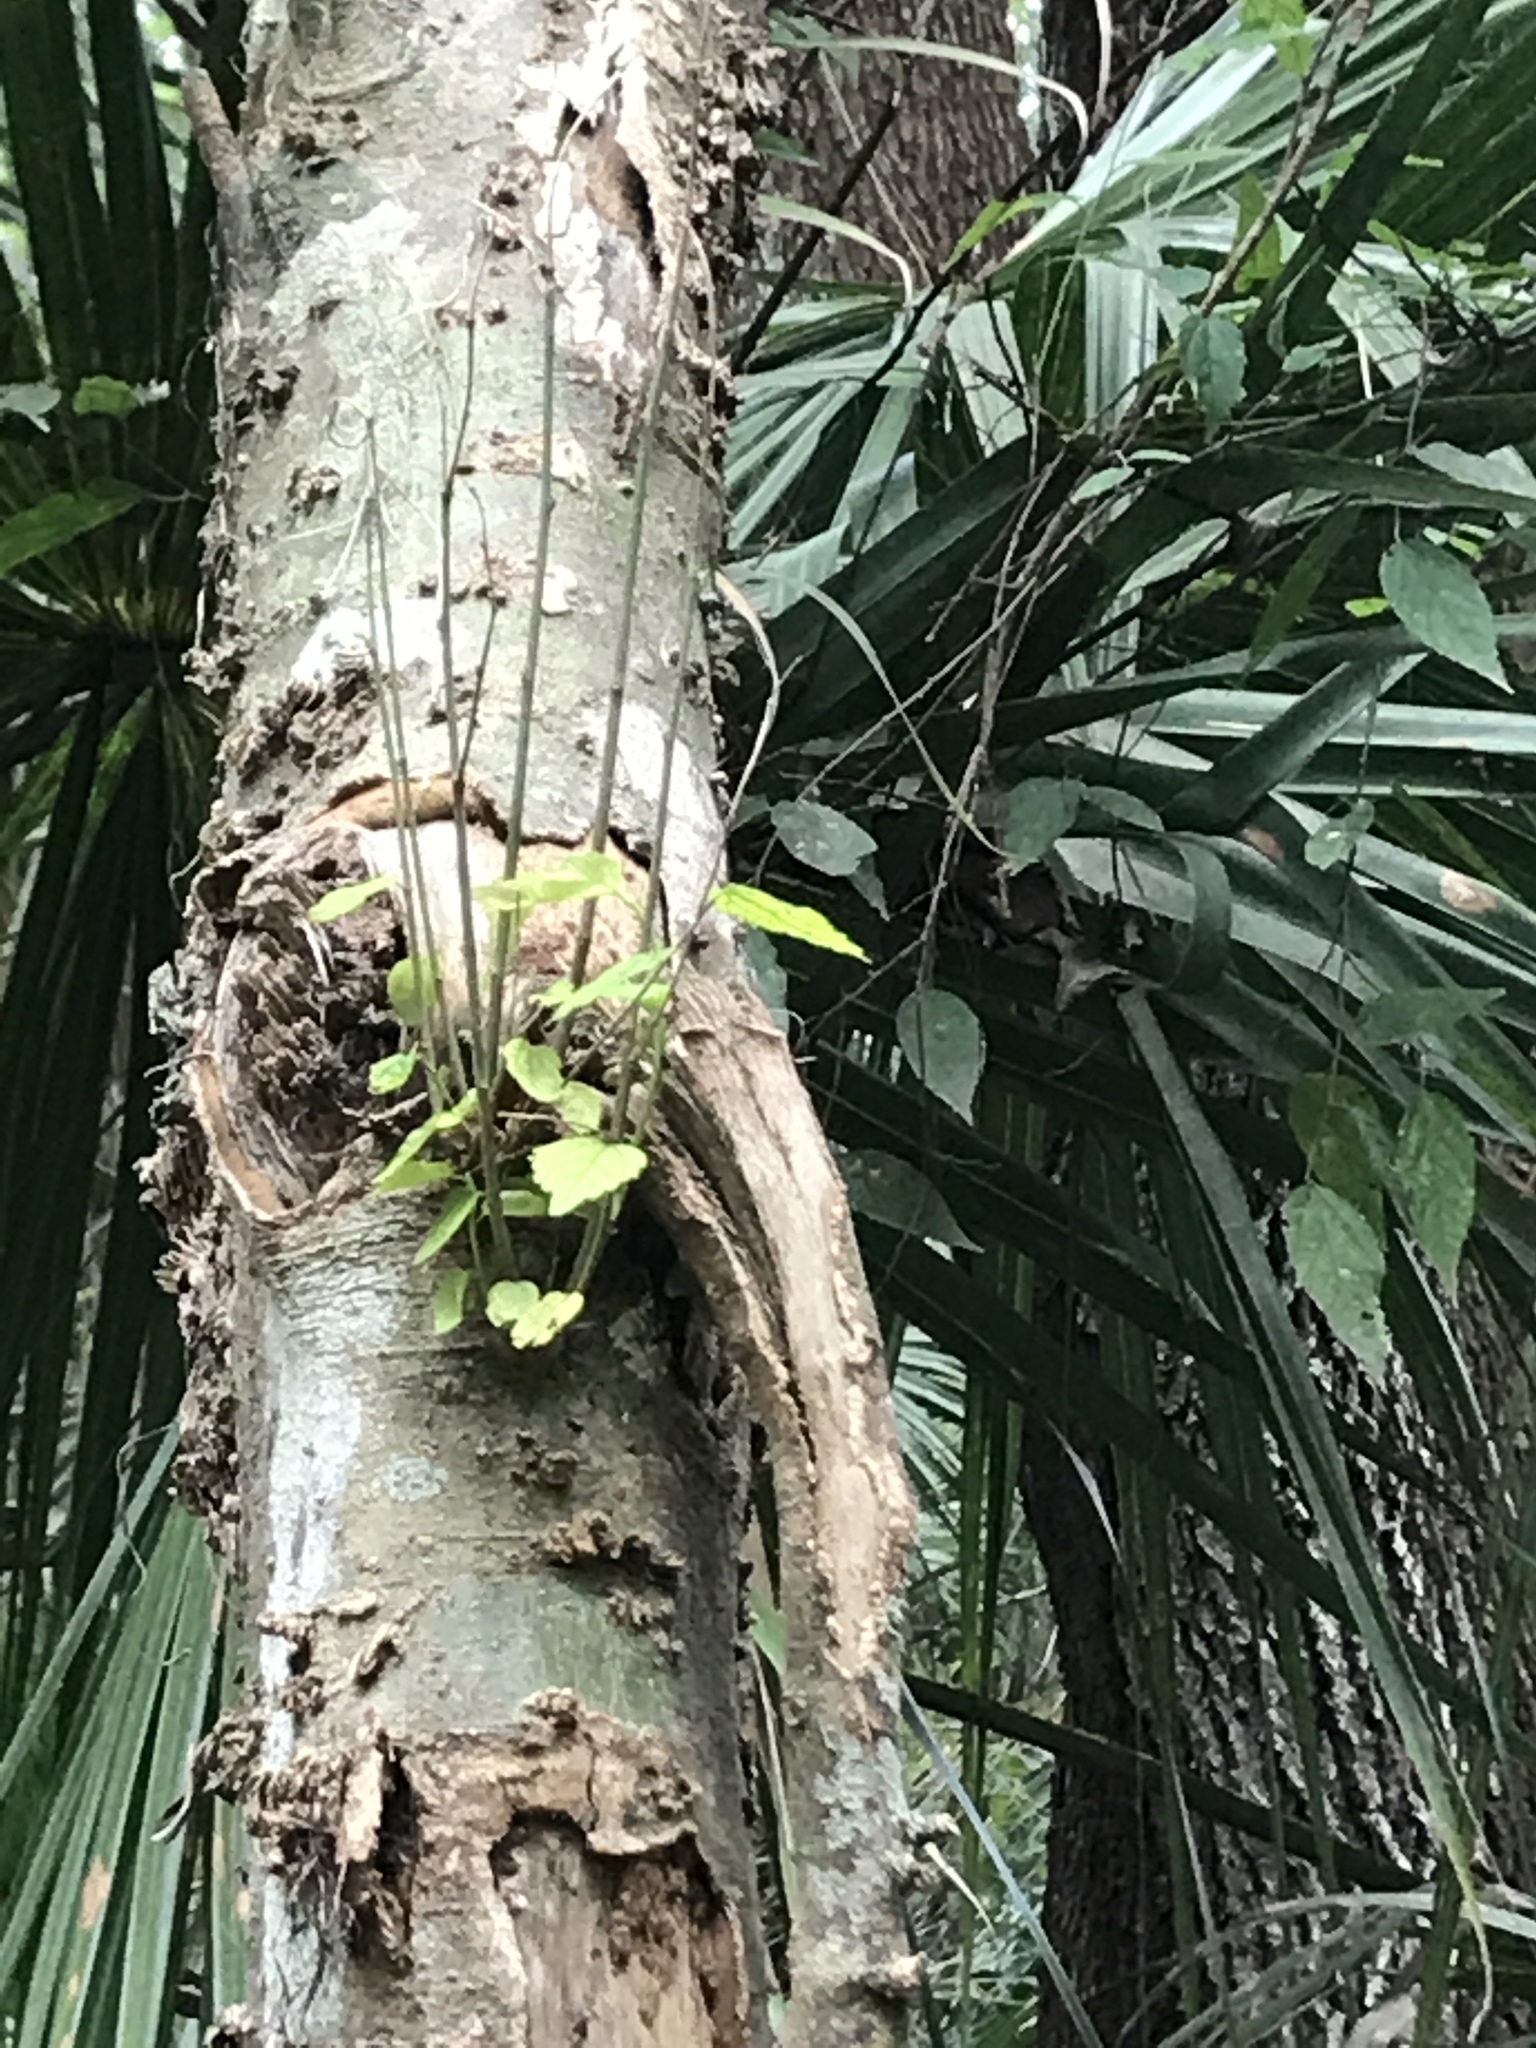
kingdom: Plantae
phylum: Tracheophyta
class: Magnoliopsida
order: Rosales
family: Cannabaceae
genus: Celtis
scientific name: Celtis laevigata
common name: Sugarberry
